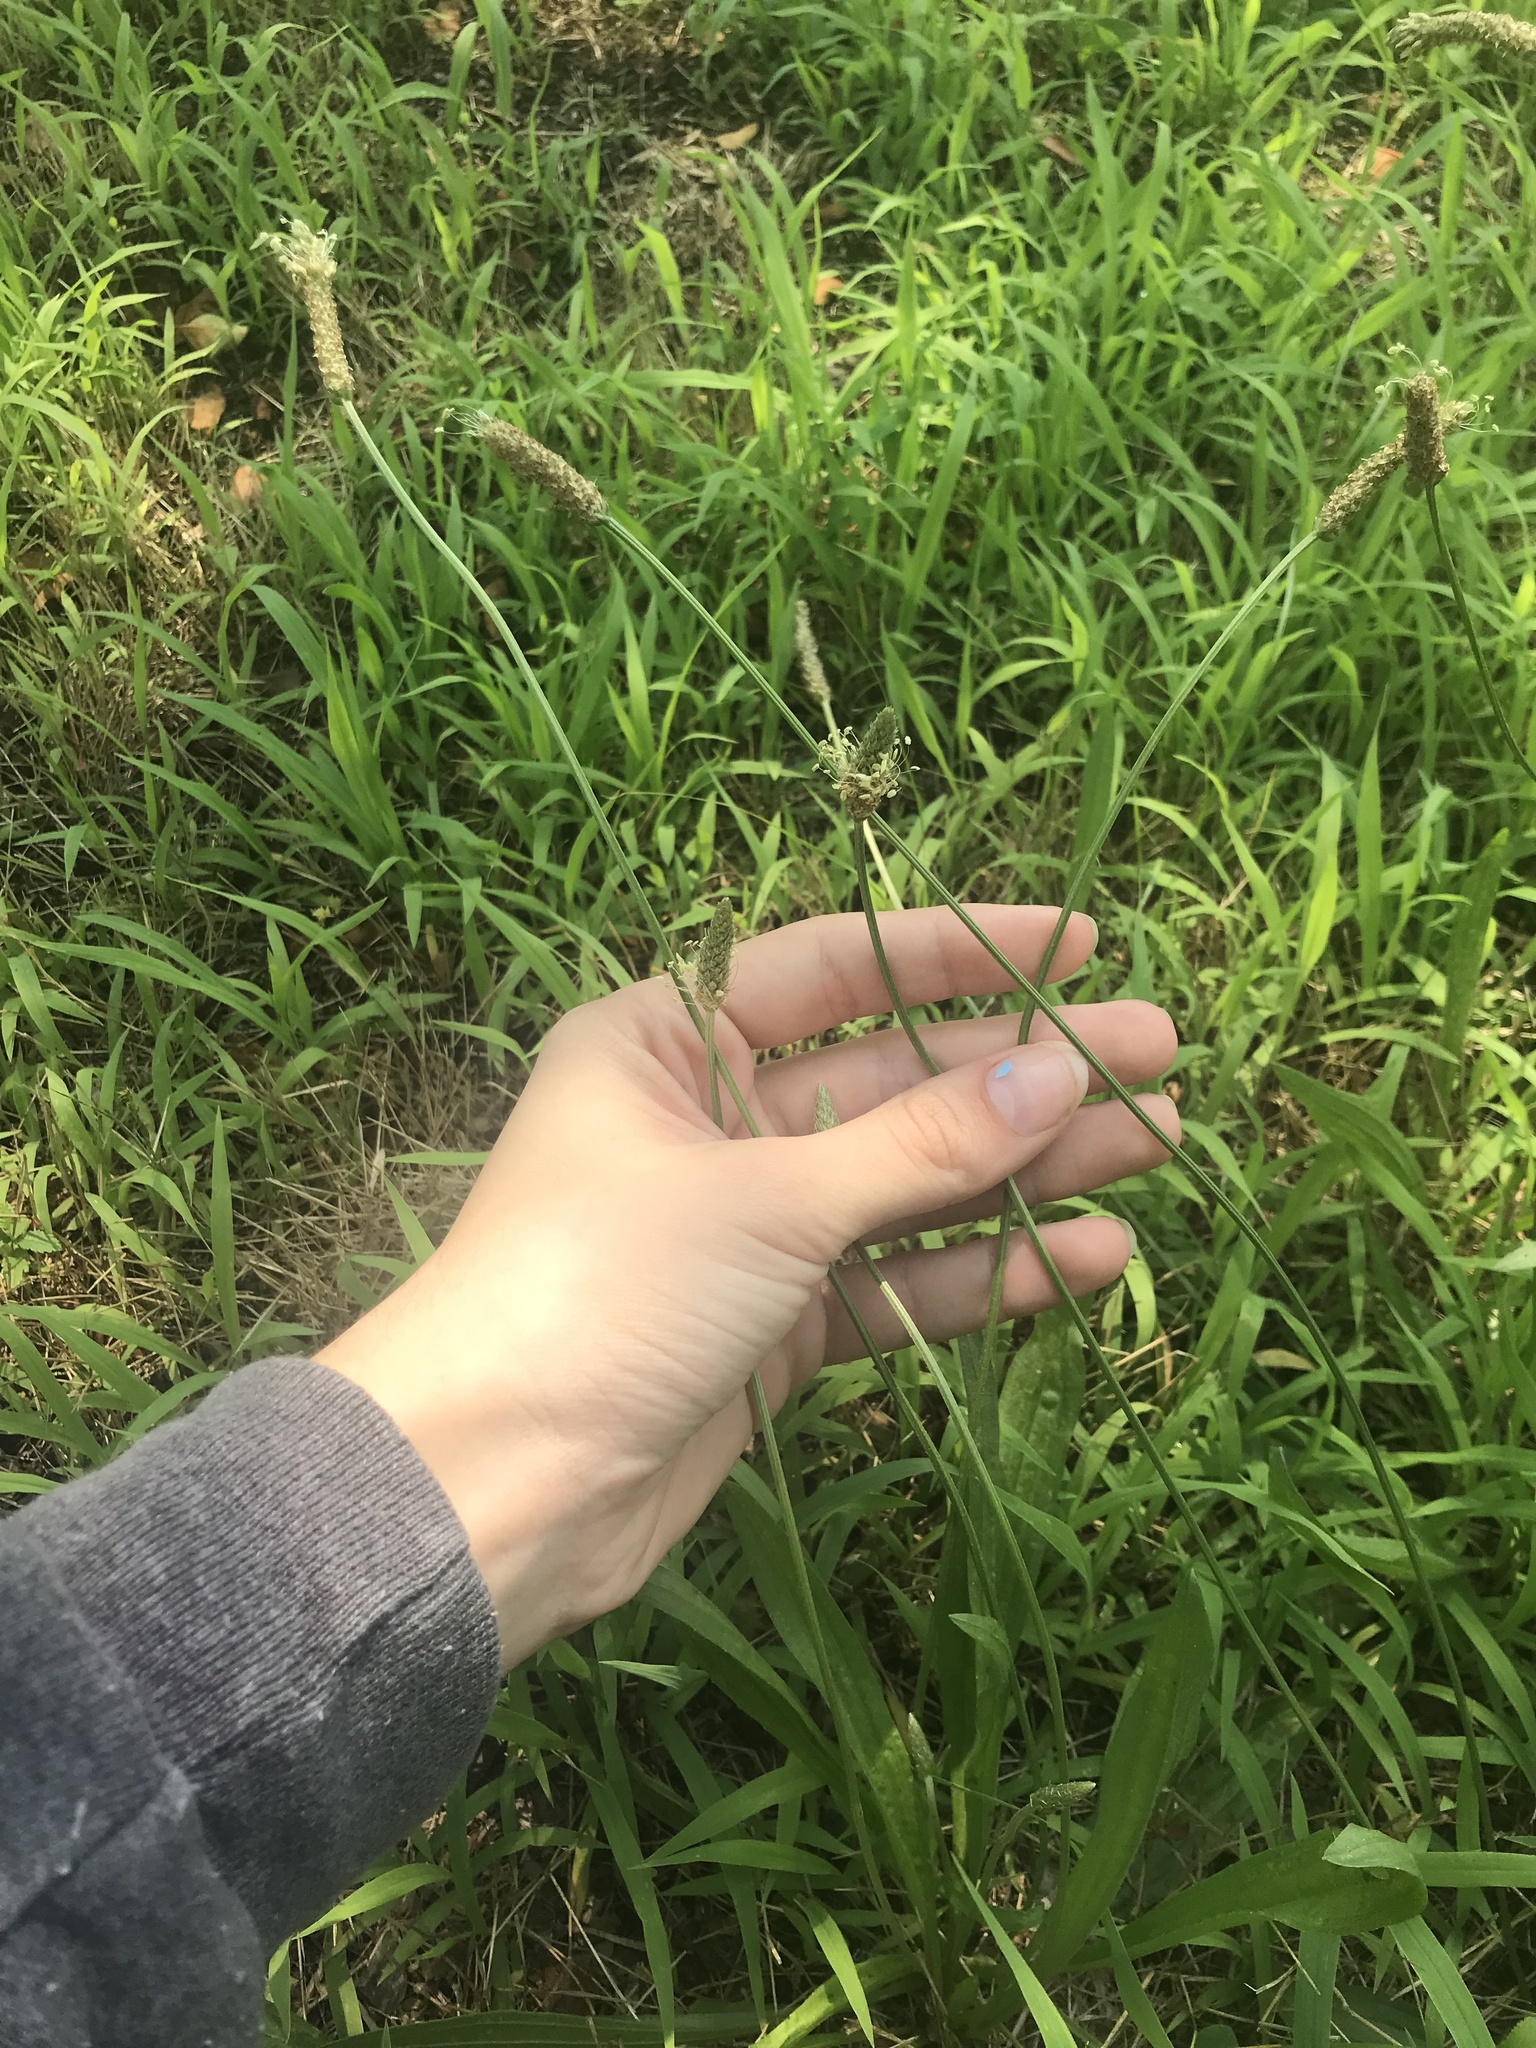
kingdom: Plantae
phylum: Tracheophyta
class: Magnoliopsida
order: Lamiales
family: Plantaginaceae
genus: Plantago
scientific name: Plantago lanceolata
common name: Ribwort plantain
